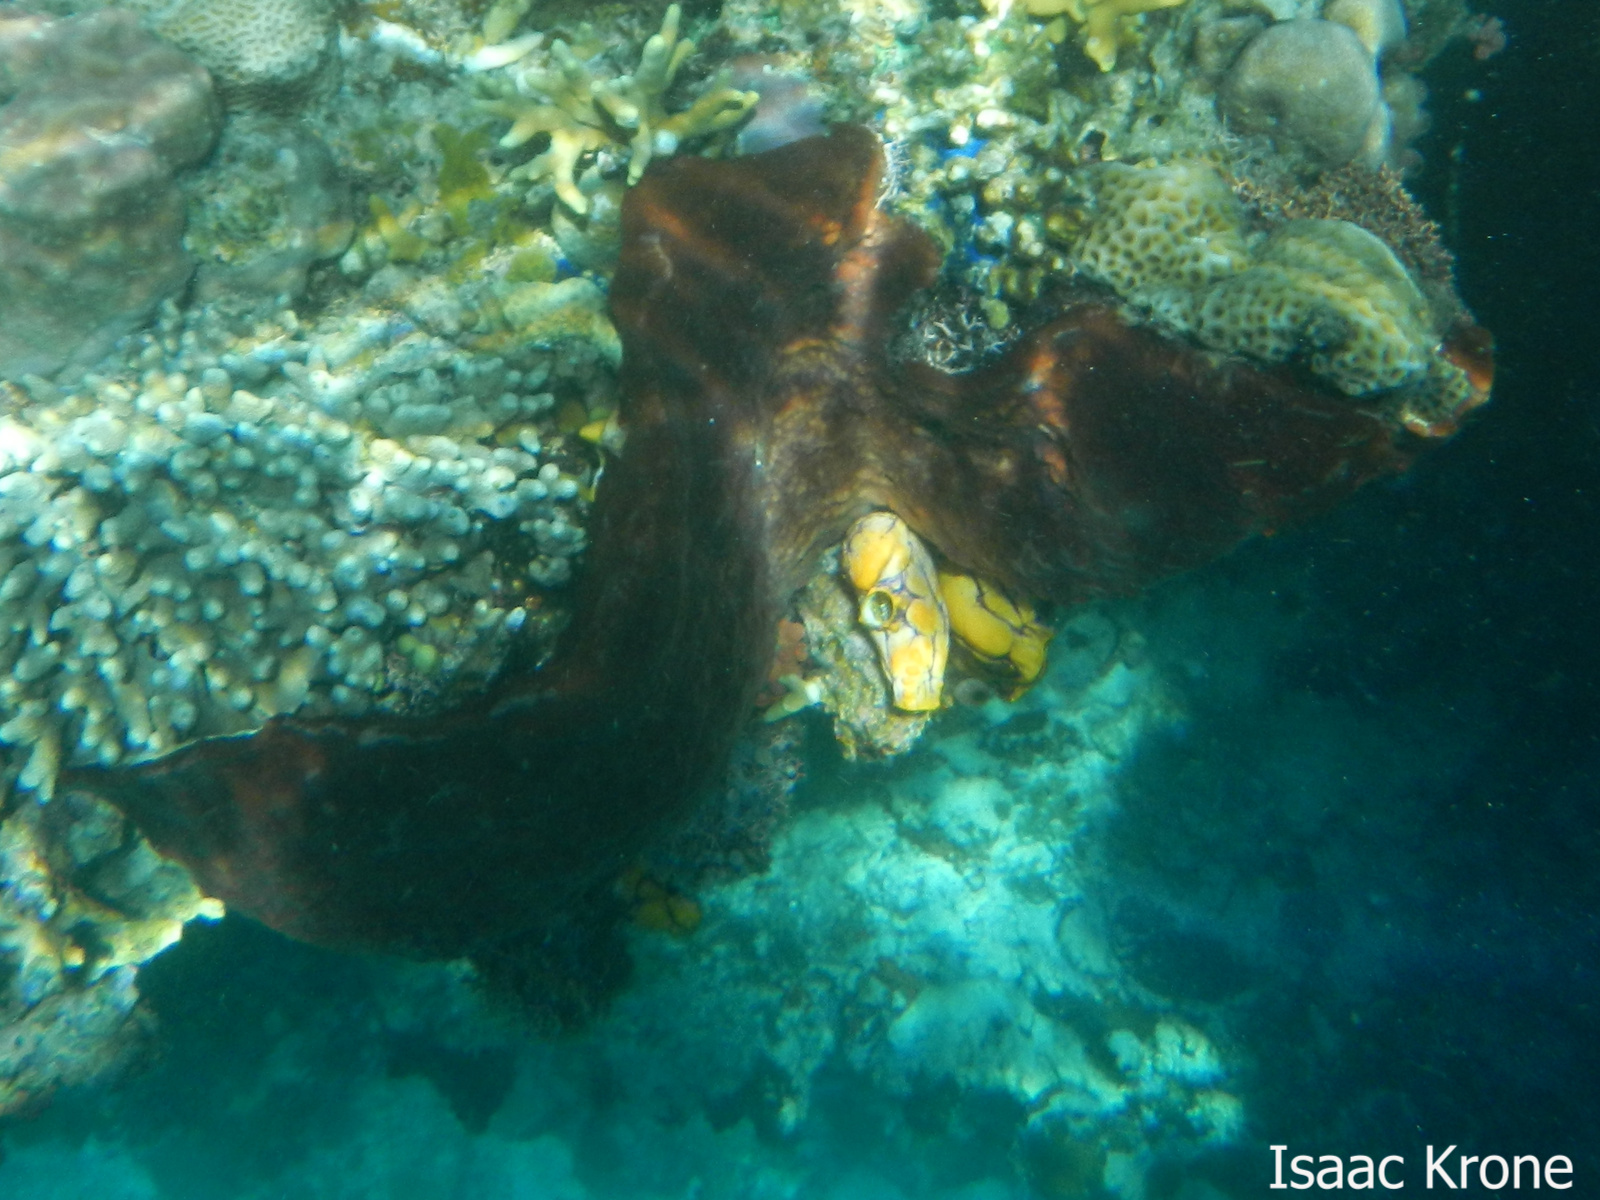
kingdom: Animalia
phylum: Chordata
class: Ascidiacea
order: Stolidobranchia
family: Styelidae
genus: Polycarpa
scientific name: Polycarpa aurata
